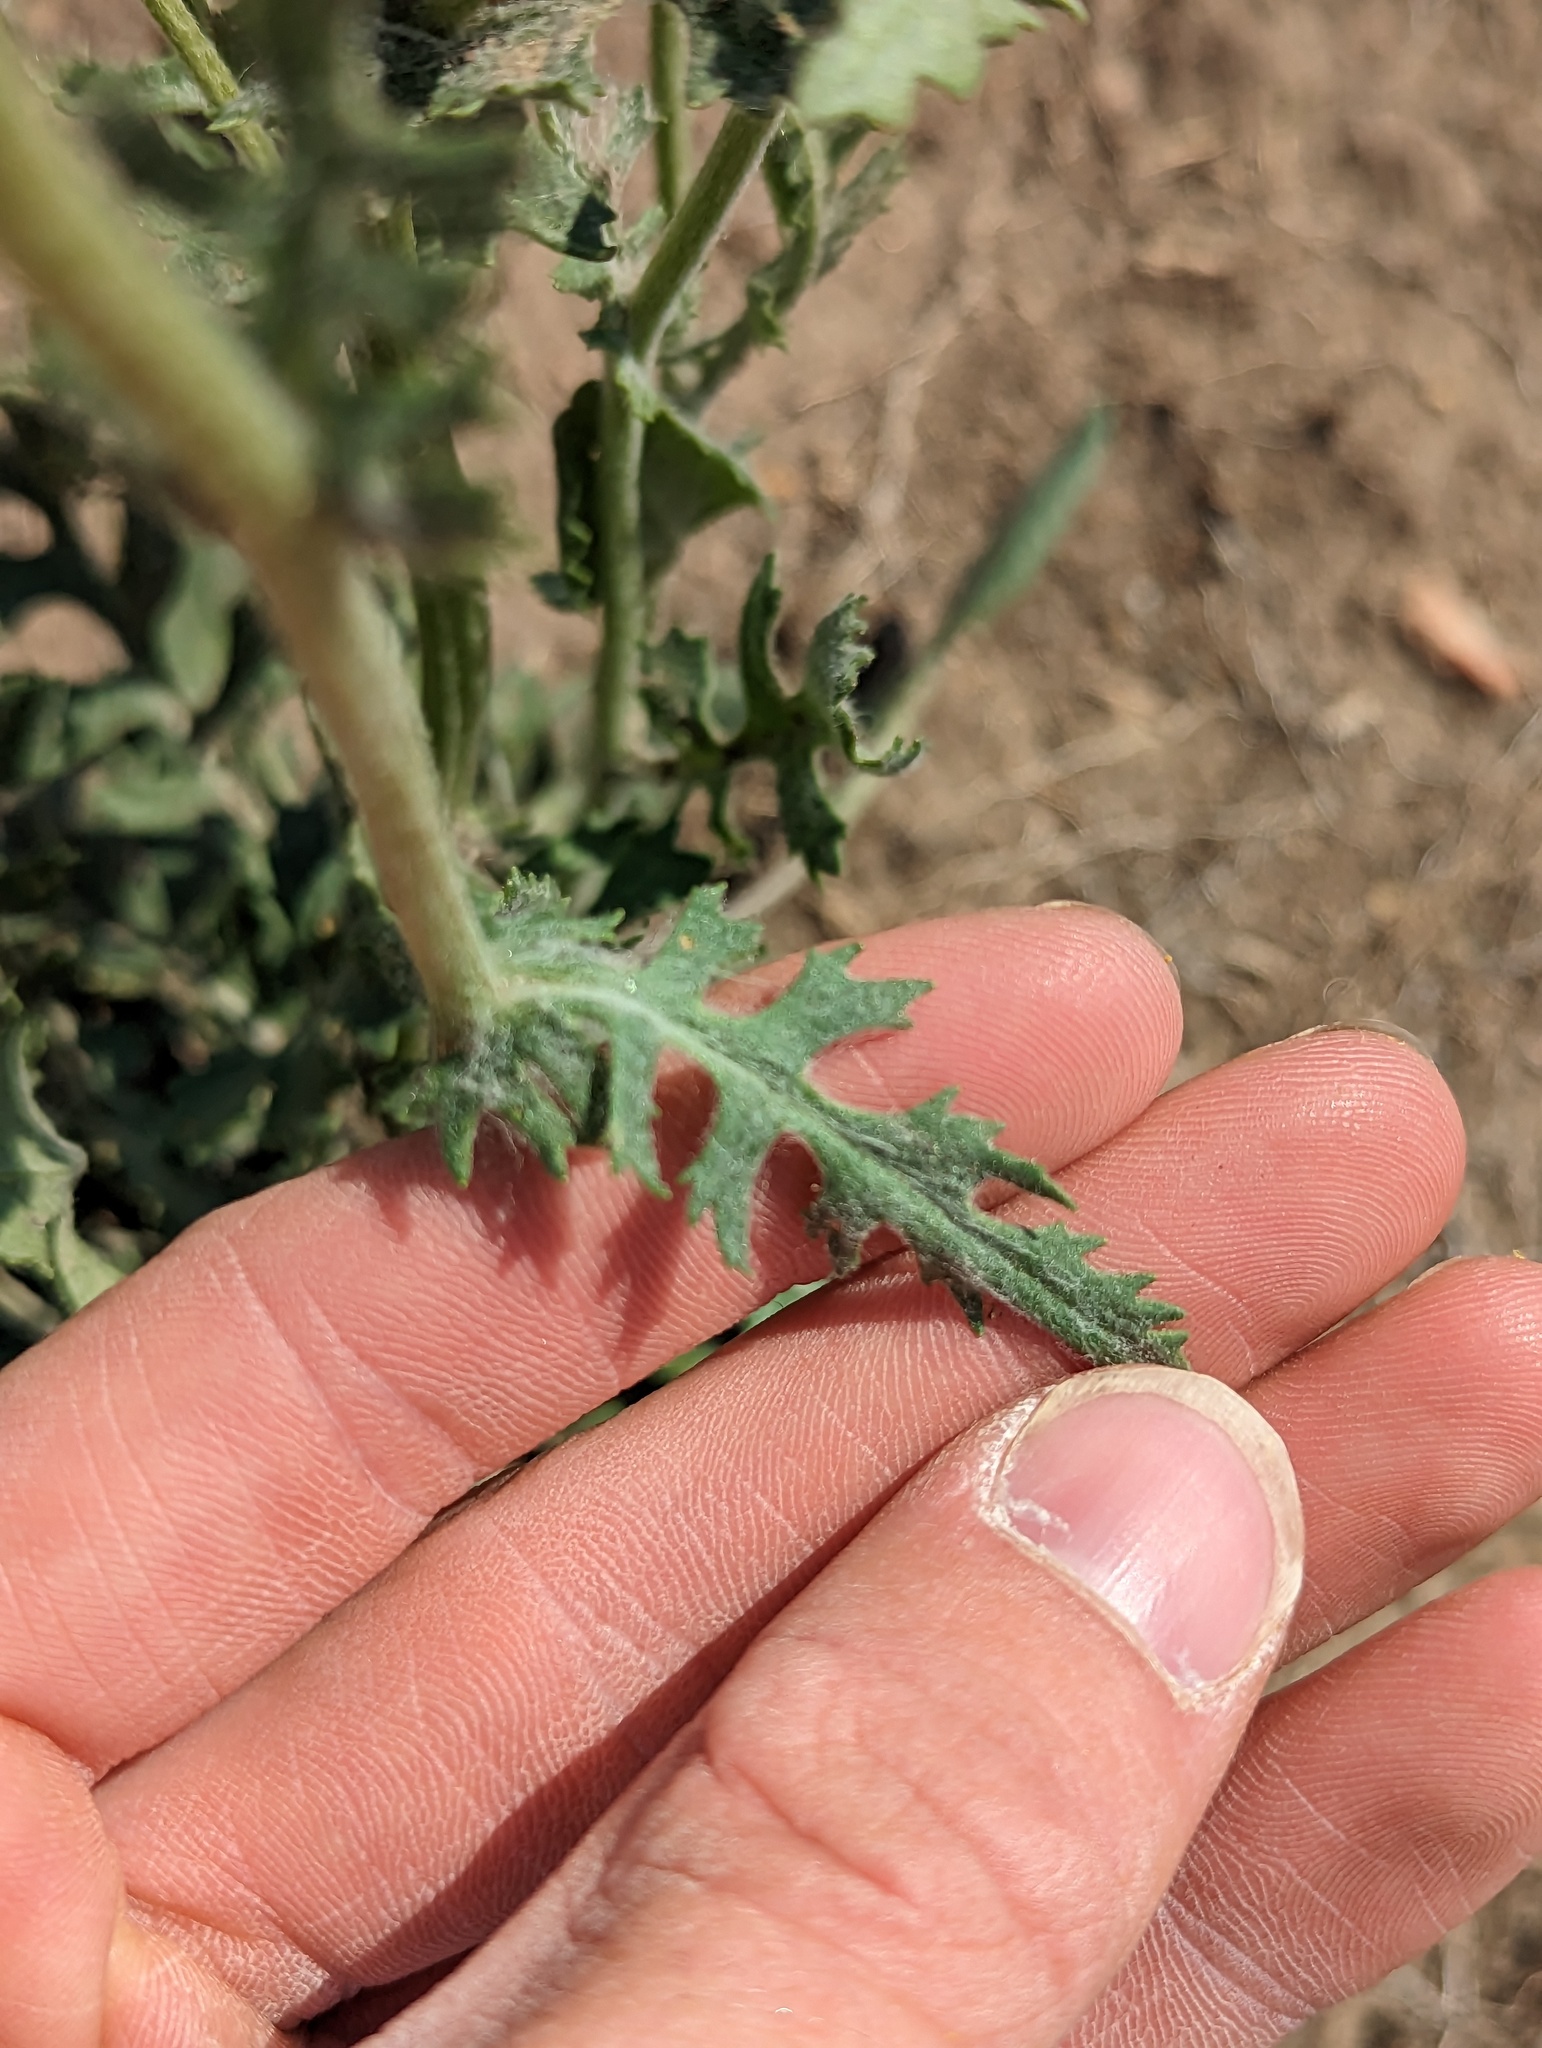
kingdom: Plantae
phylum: Tracheophyta
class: Magnoliopsida
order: Asterales
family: Asteraceae
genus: Packera
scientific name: Packera plattensis
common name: Prairie groundsel
